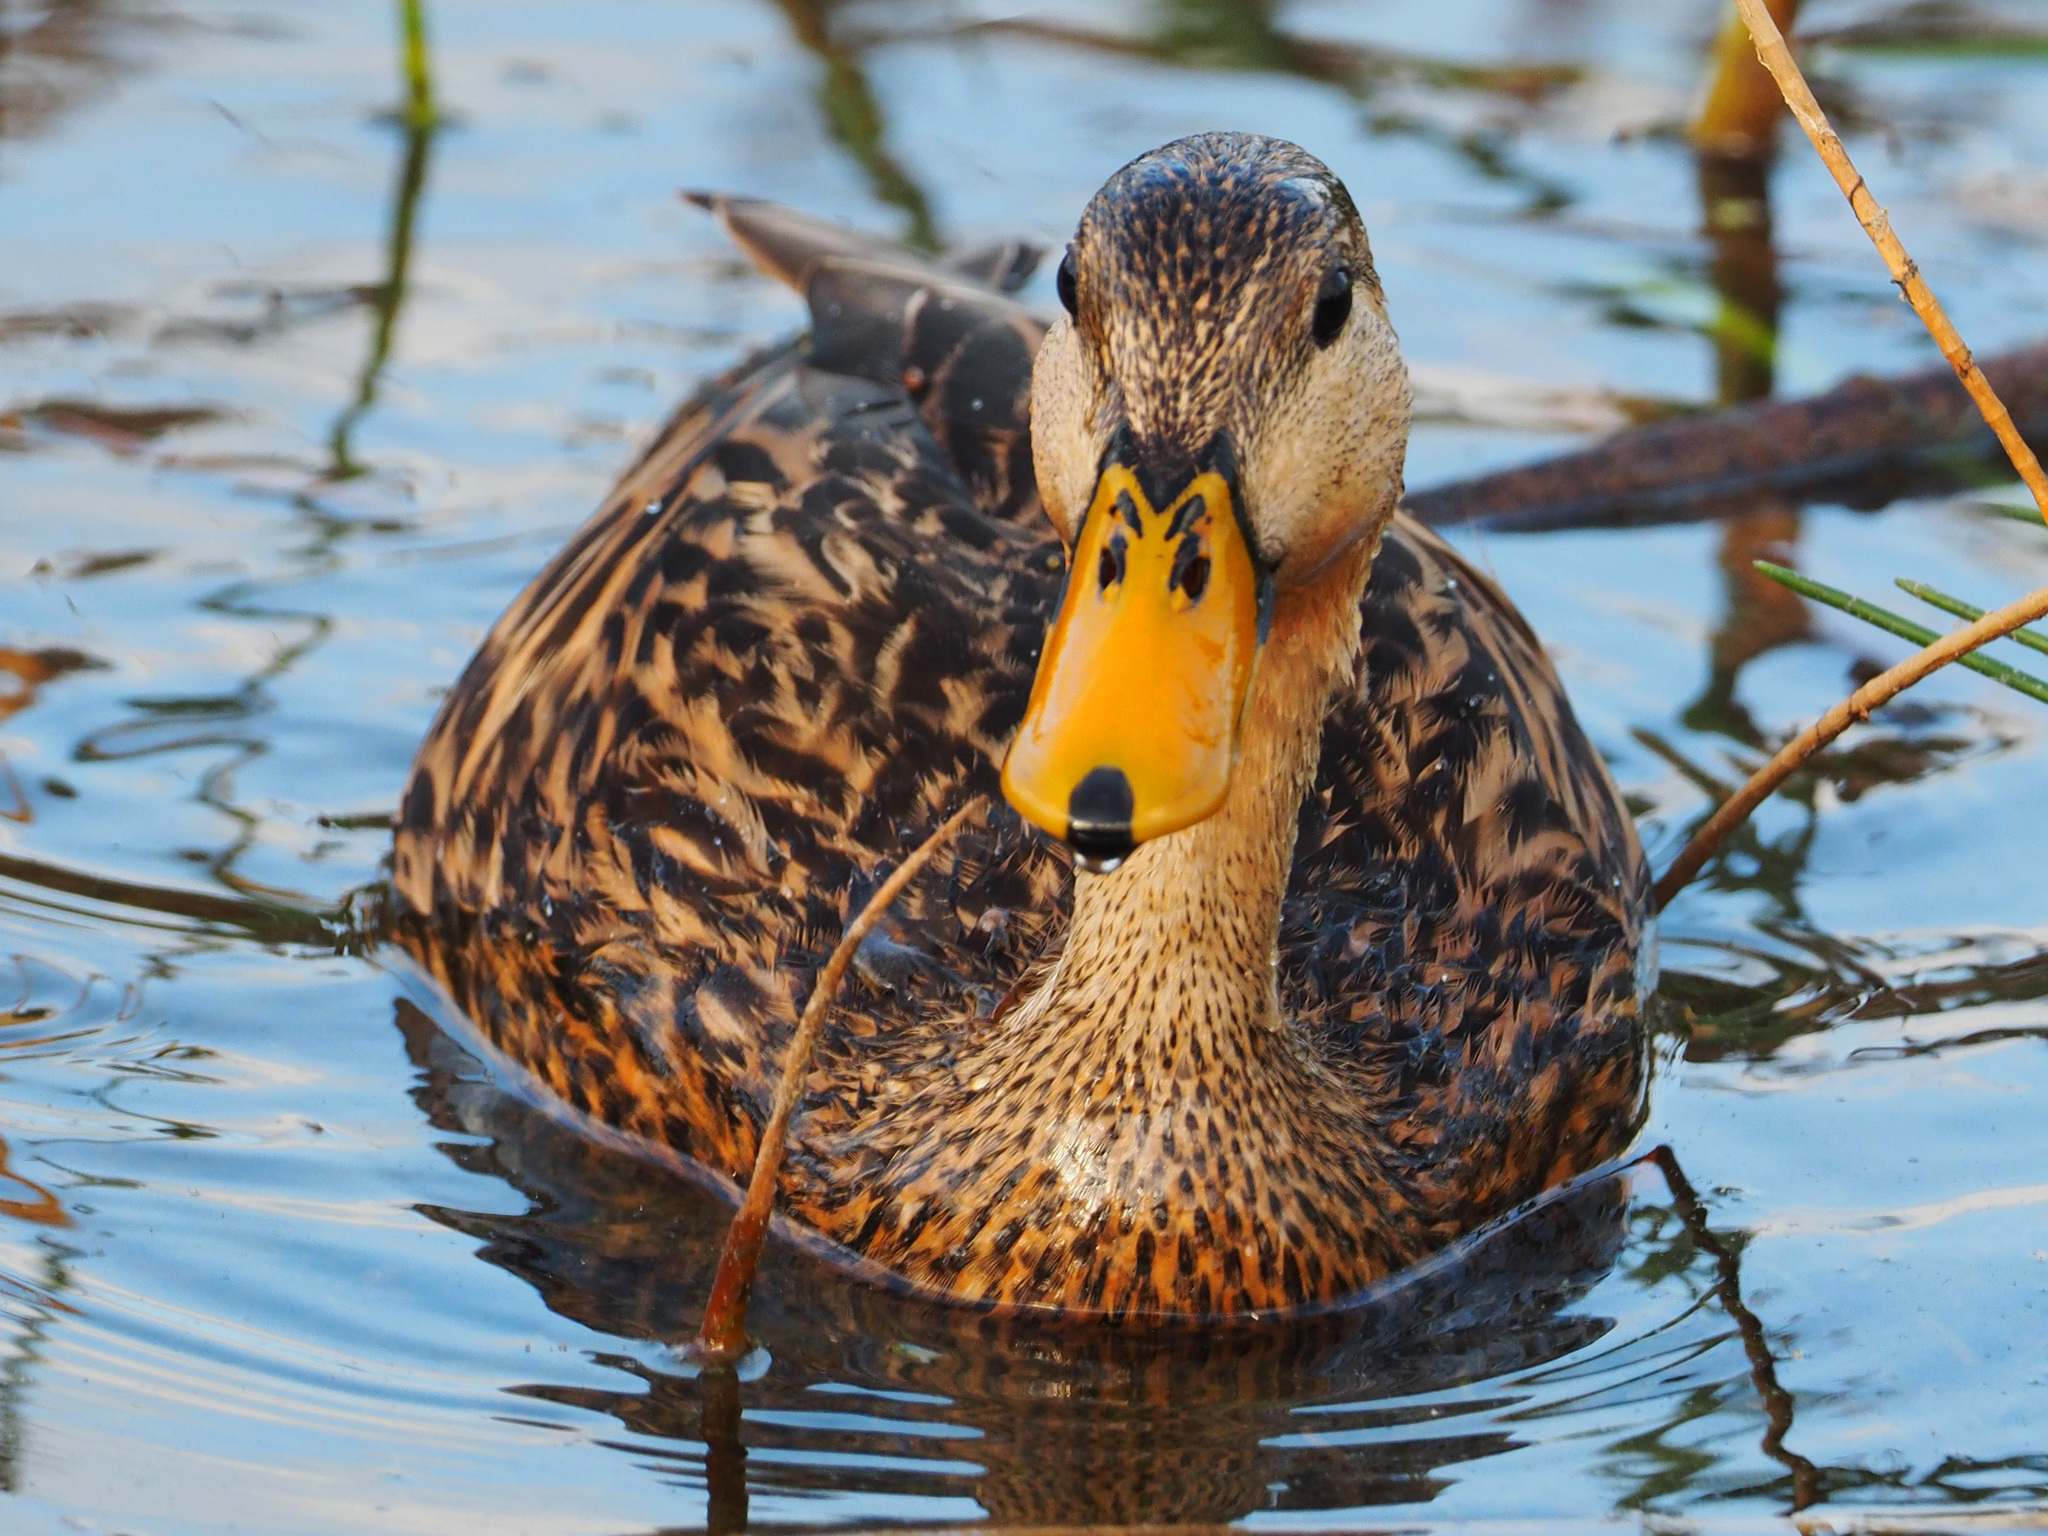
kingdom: Animalia
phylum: Chordata
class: Aves
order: Anseriformes
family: Anatidae
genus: Anas
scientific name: Anas fulvigula
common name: Mottled duck
